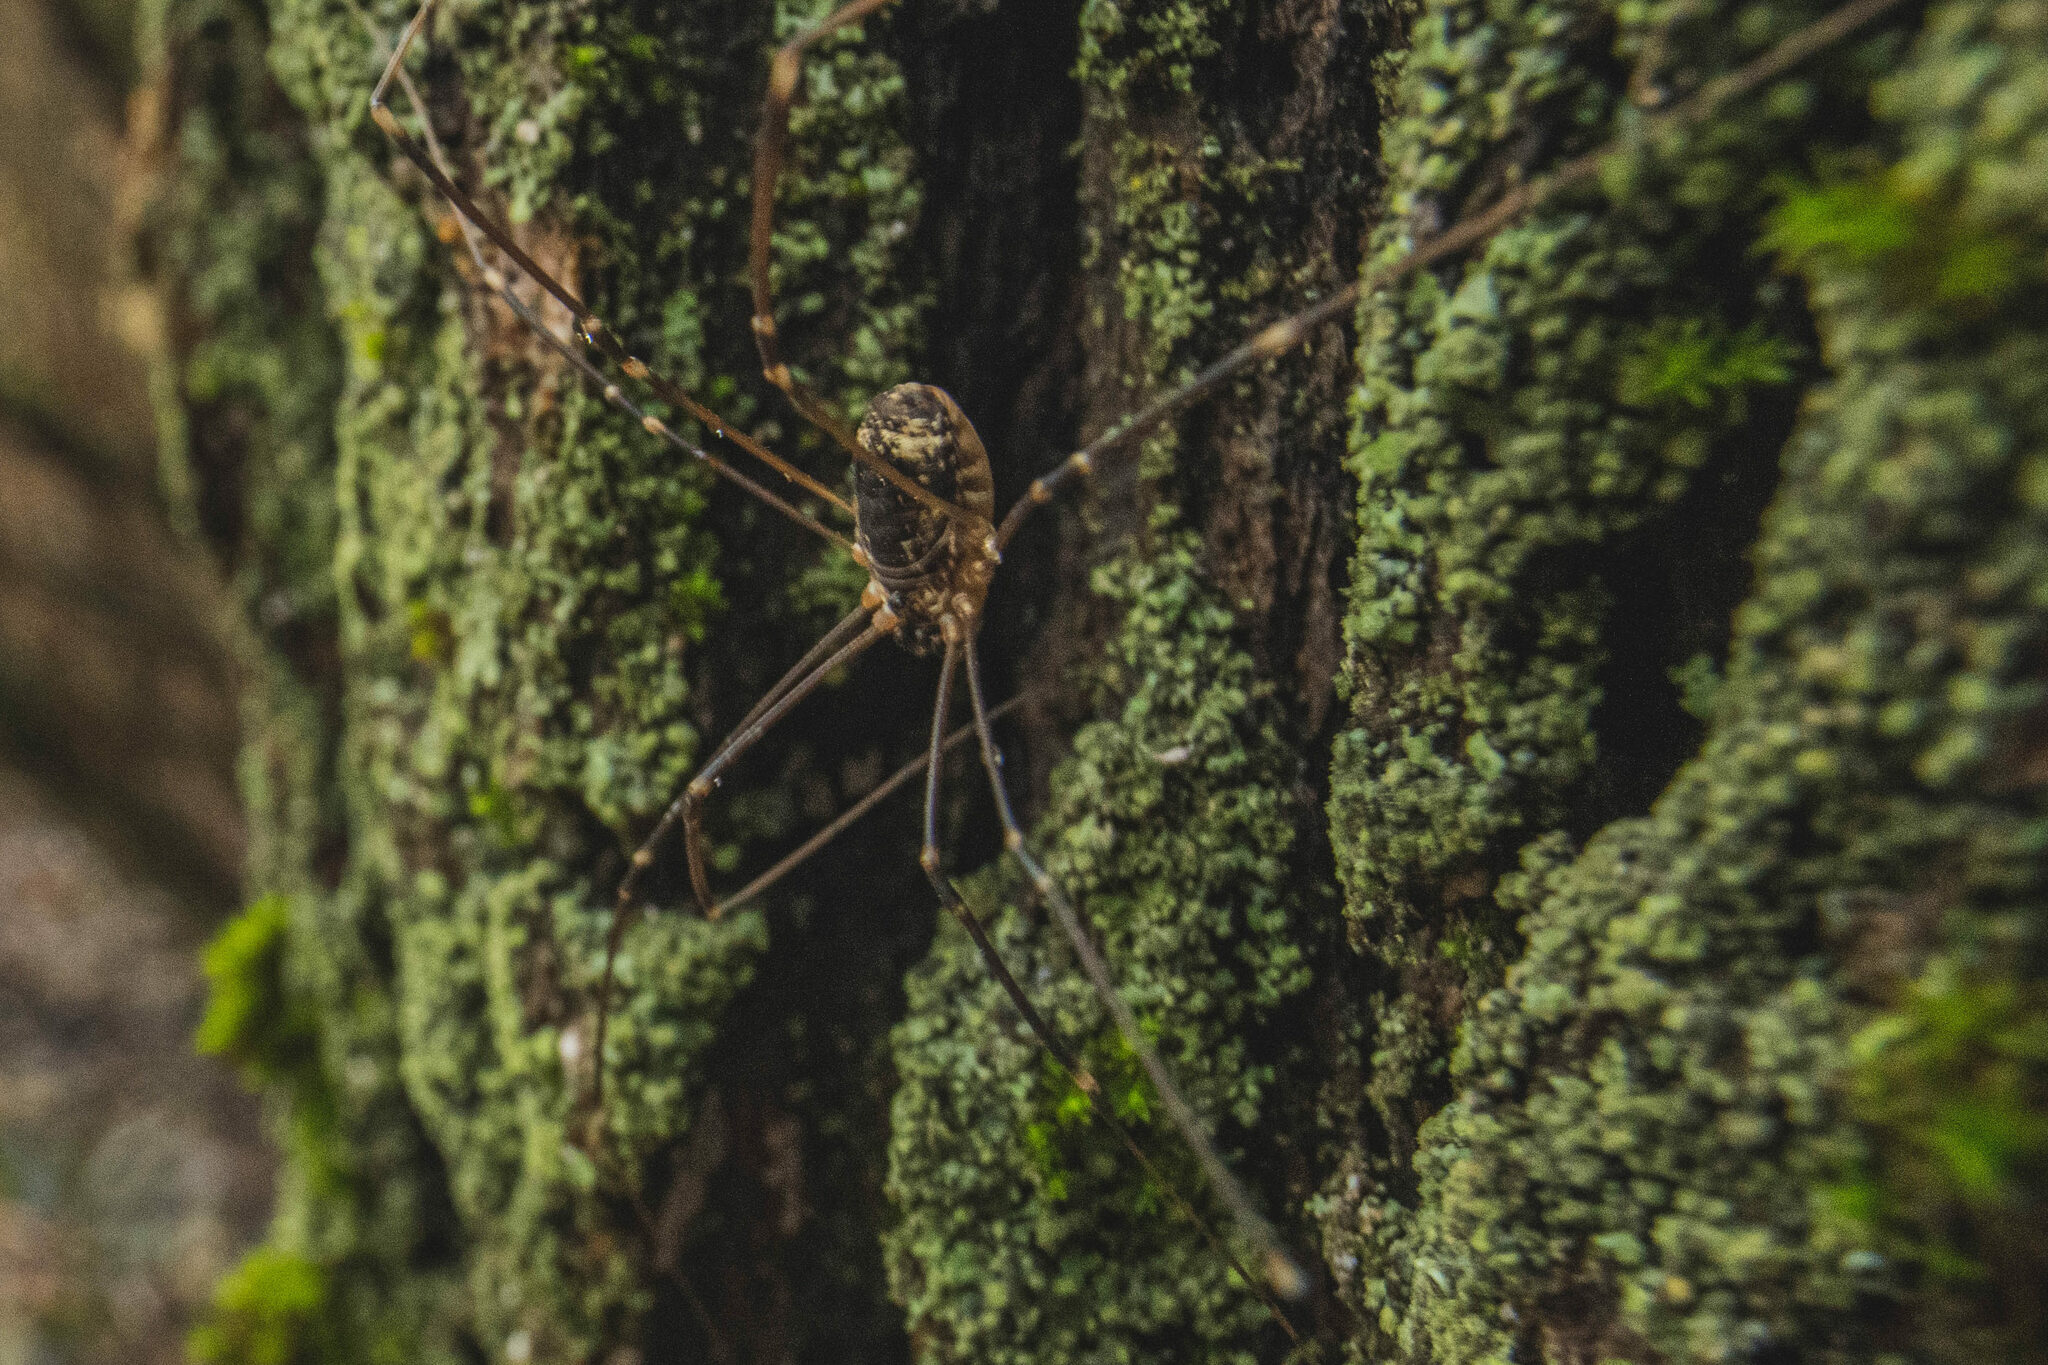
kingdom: Animalia
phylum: Arthropoda
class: Arachnida
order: Opiliones
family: Sclerosomatidae
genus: Leiobunum
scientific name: Leiobunum gracile
